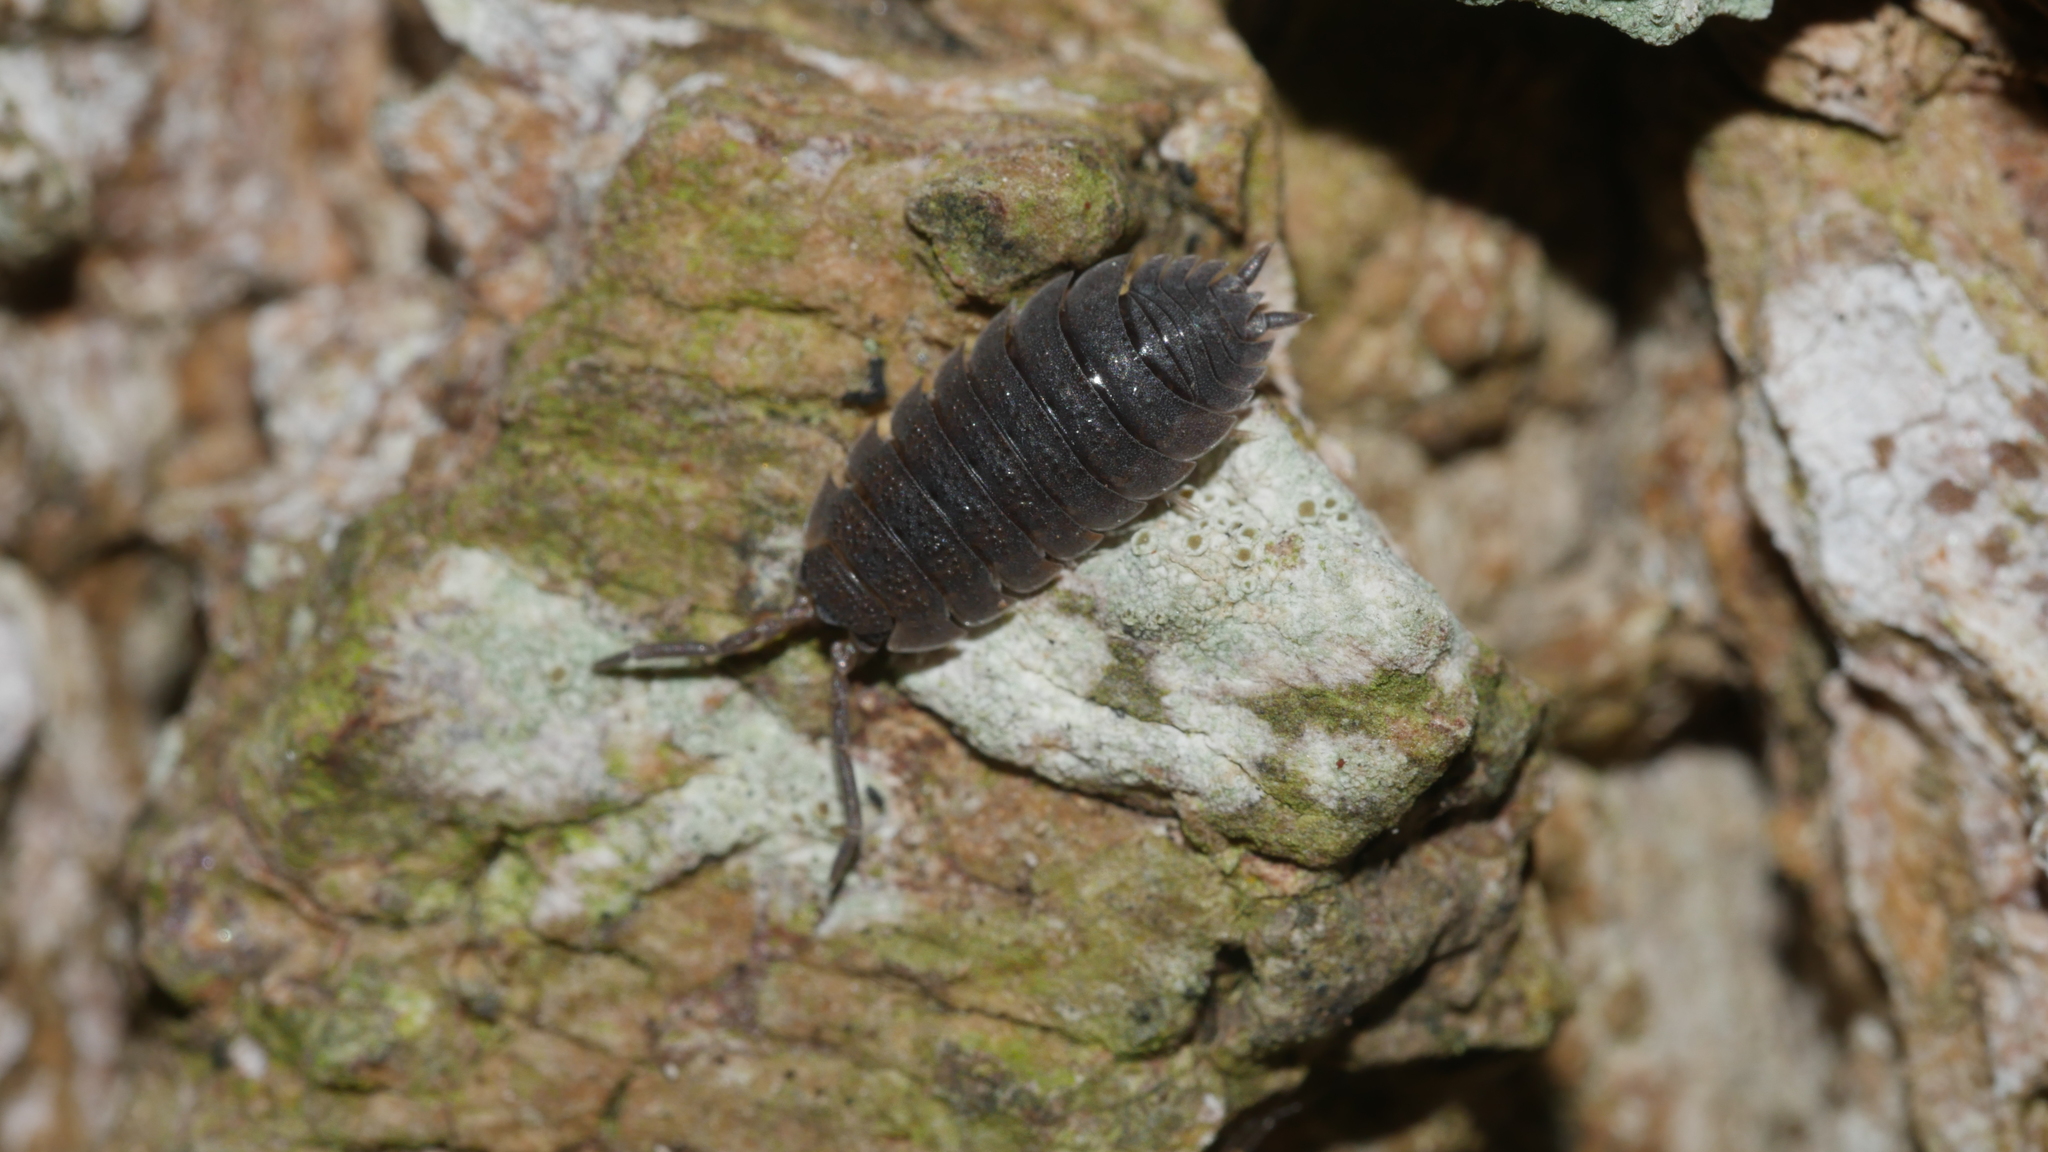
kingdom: Animalia
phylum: Arthropoda
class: Malacostraca
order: Isopoda
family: Porcellionidae
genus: Porcellio
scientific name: Porcellio scaber
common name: Common rough woodlouse
